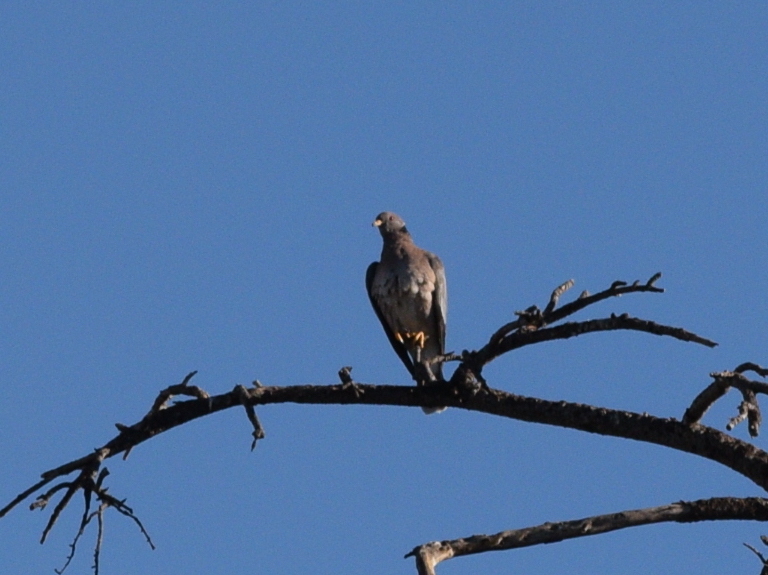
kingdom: Animalia
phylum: Chordata
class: Aves
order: Columbiformes
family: Columbidae
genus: Patagioenas
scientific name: Patagioenas fasciata
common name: Band-tailed pigeon
